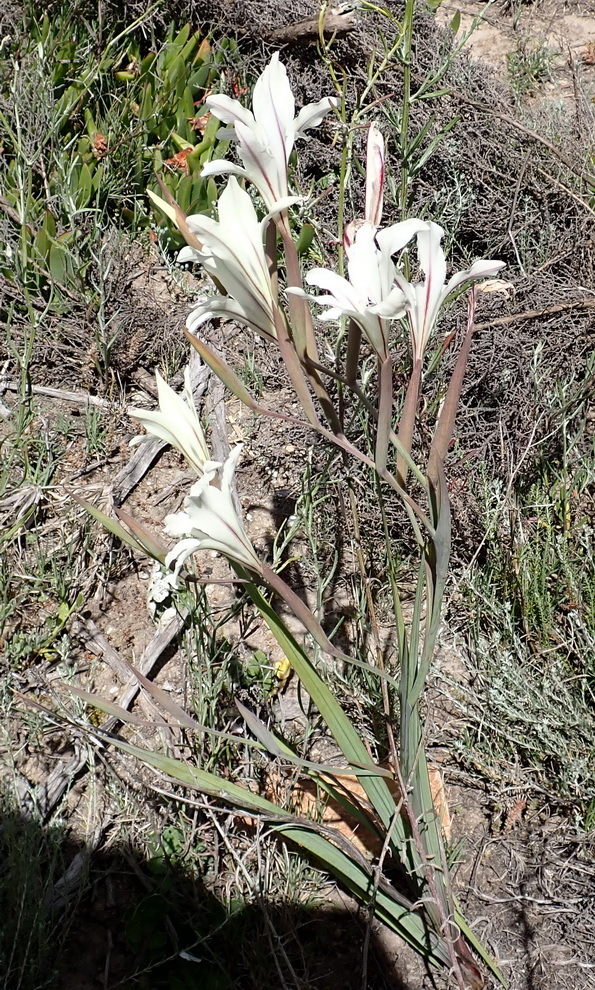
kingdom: Plantae
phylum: Tracheophyta
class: Liliopsida
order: Asparagales
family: Iridaceae
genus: Gladiolus
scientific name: Gladiolus floribundus
